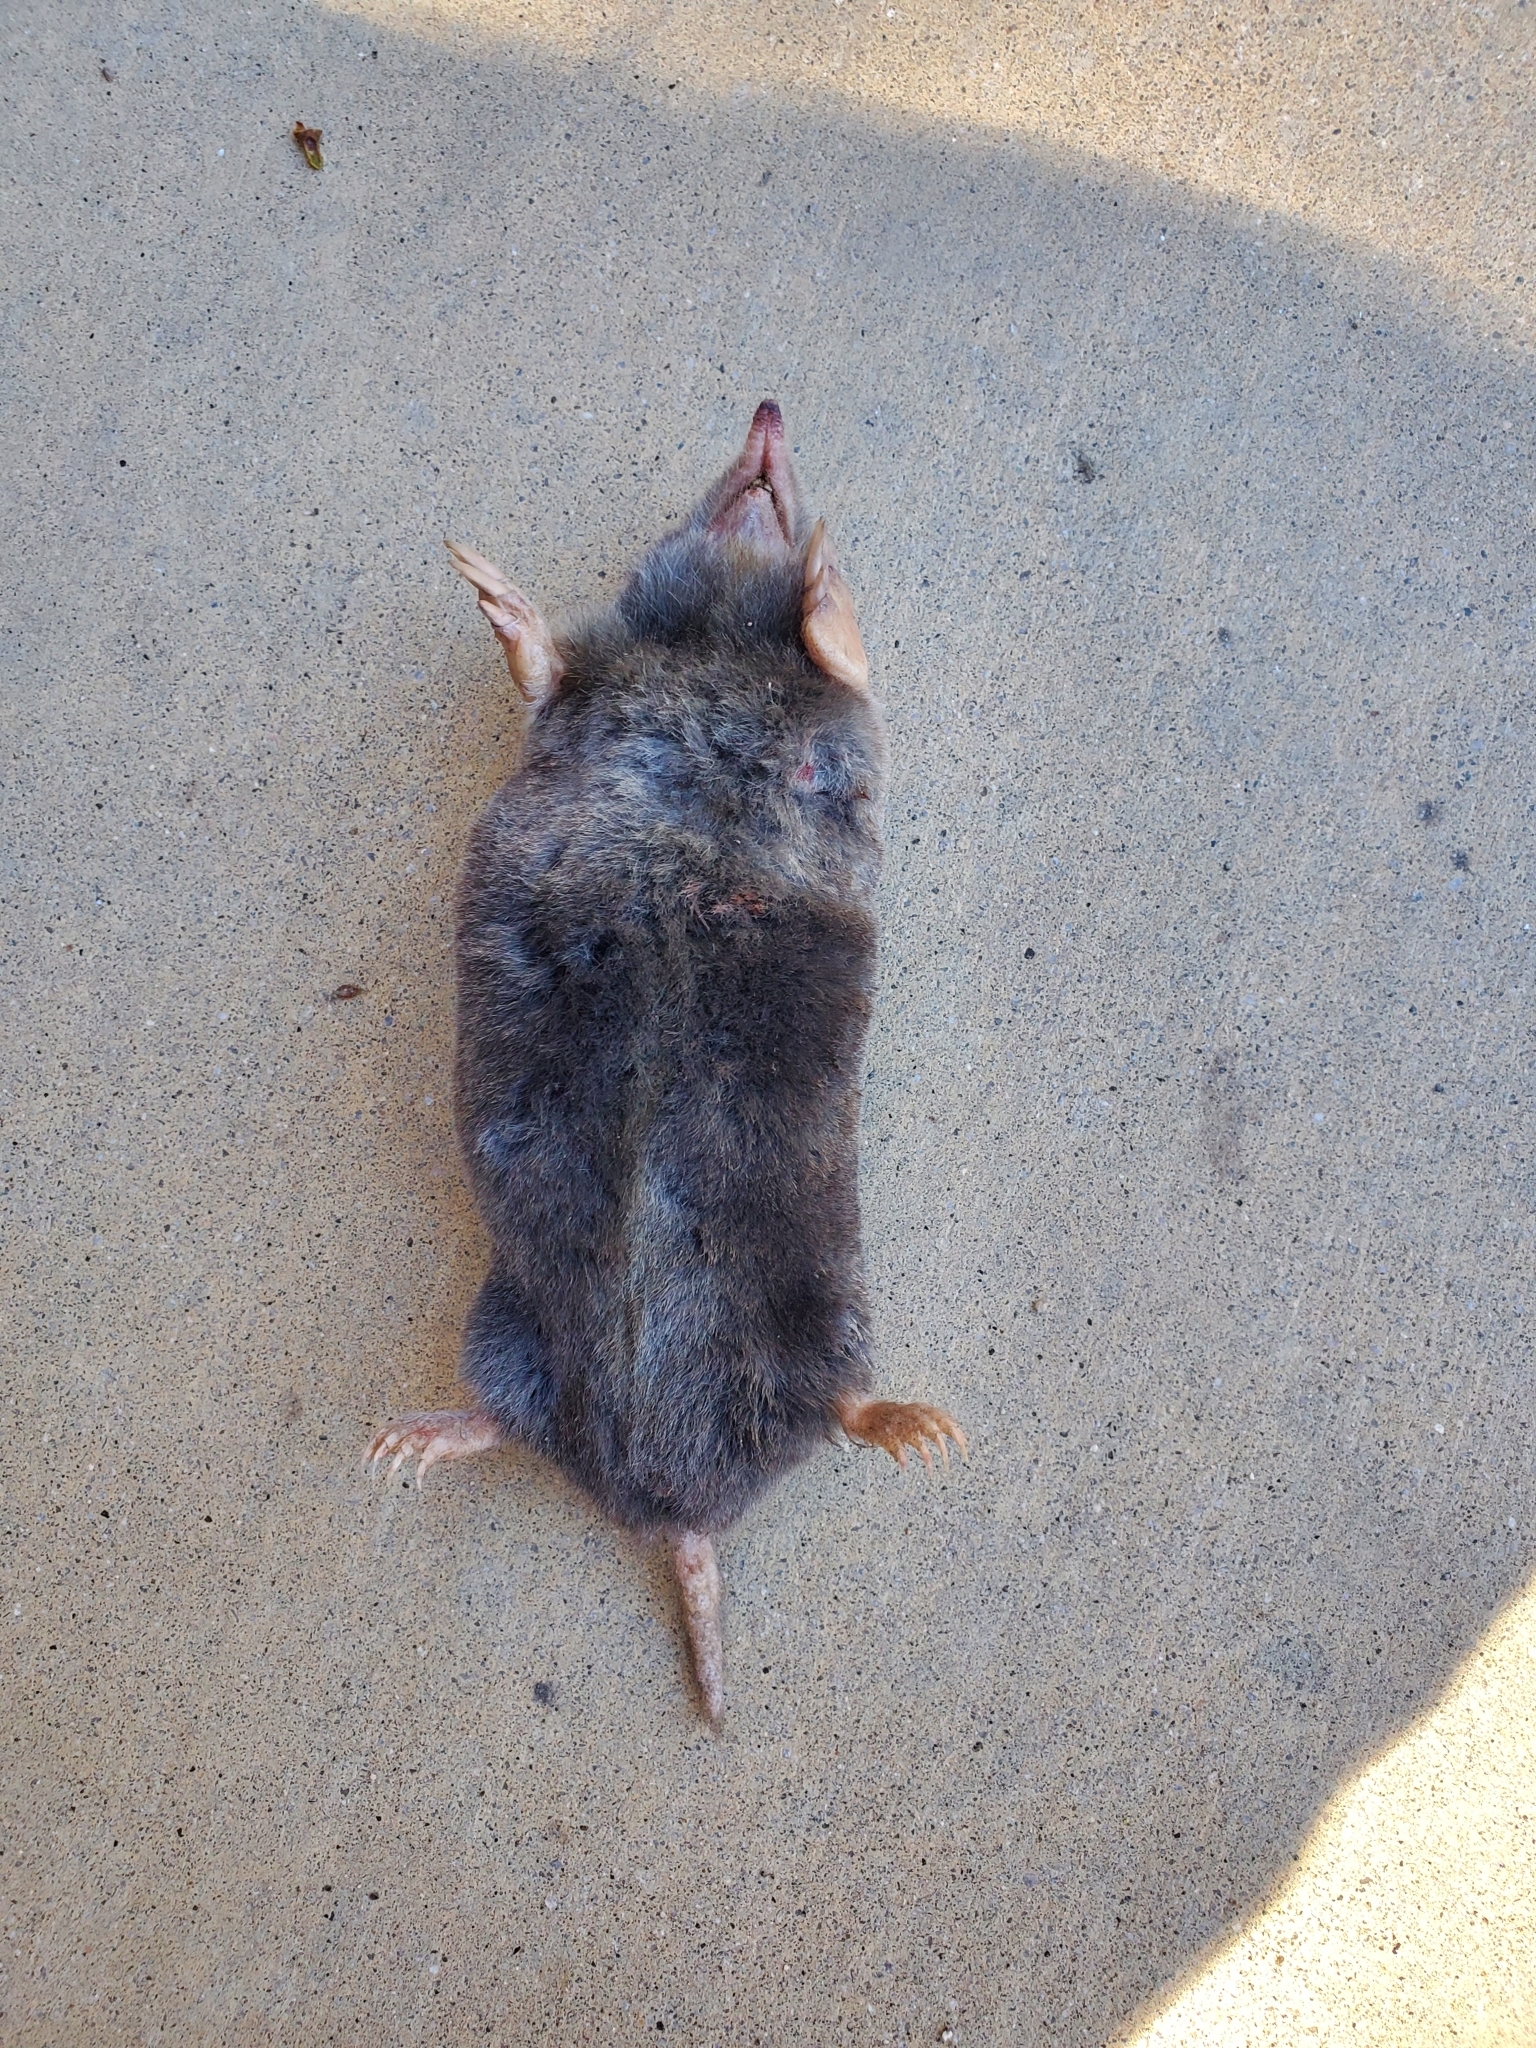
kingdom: Animalia
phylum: Chordata
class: Mammalia
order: Soricomorpha
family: Talpidae
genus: Scapanus
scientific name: Scapanus latimanus
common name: Broad-footed mole
